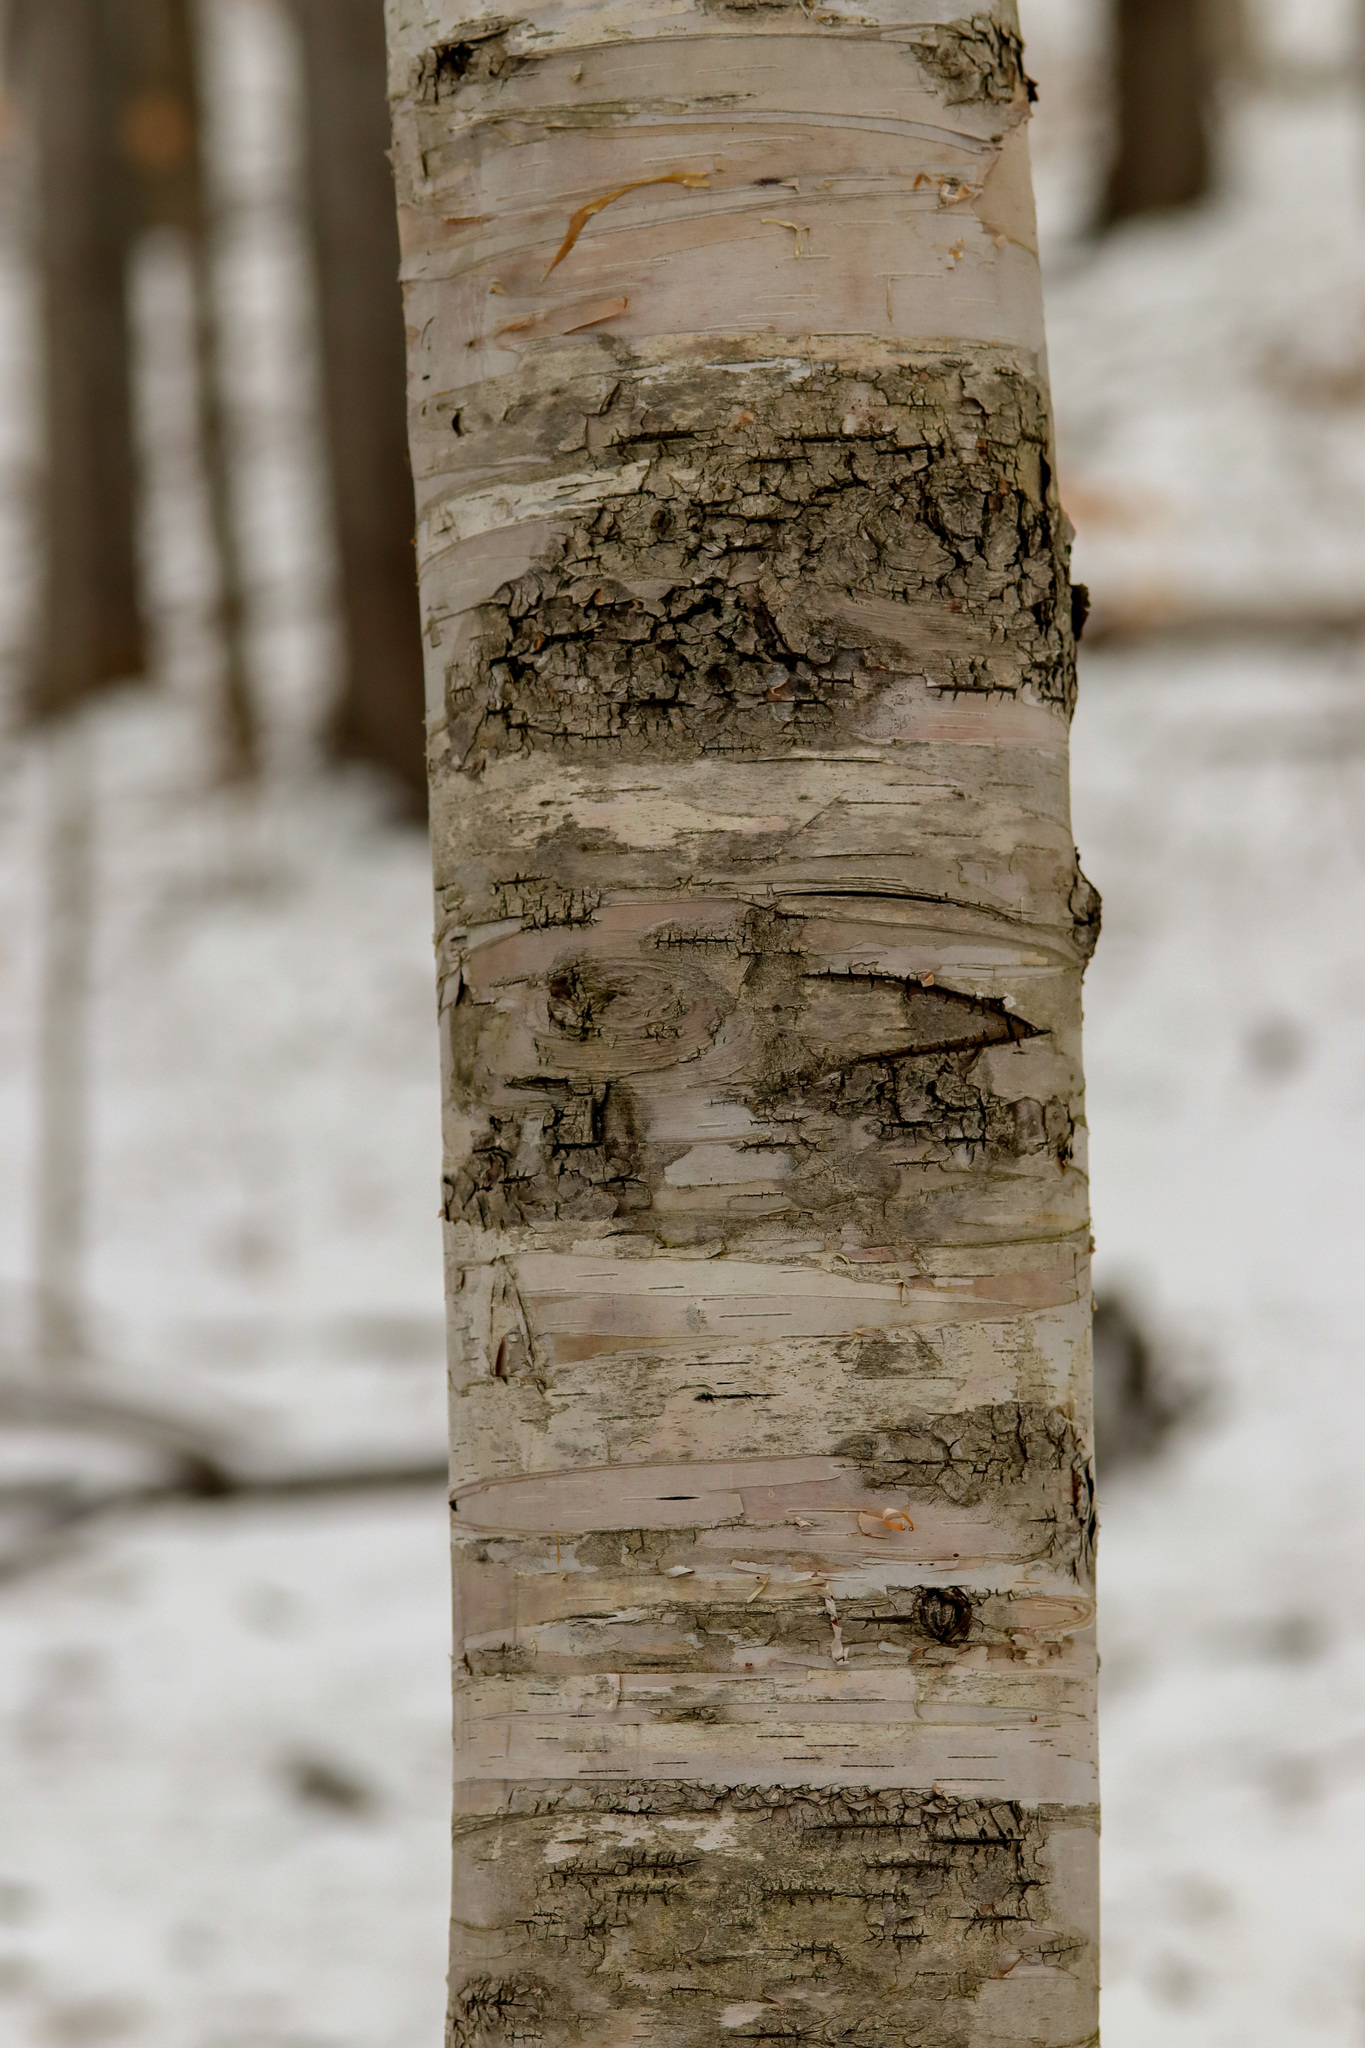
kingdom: Plantae
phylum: Tracheophyta
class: Magnoliopsida
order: Fagales
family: Betulaceae
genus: Betula
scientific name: Betula papyrifera
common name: Paper birch
